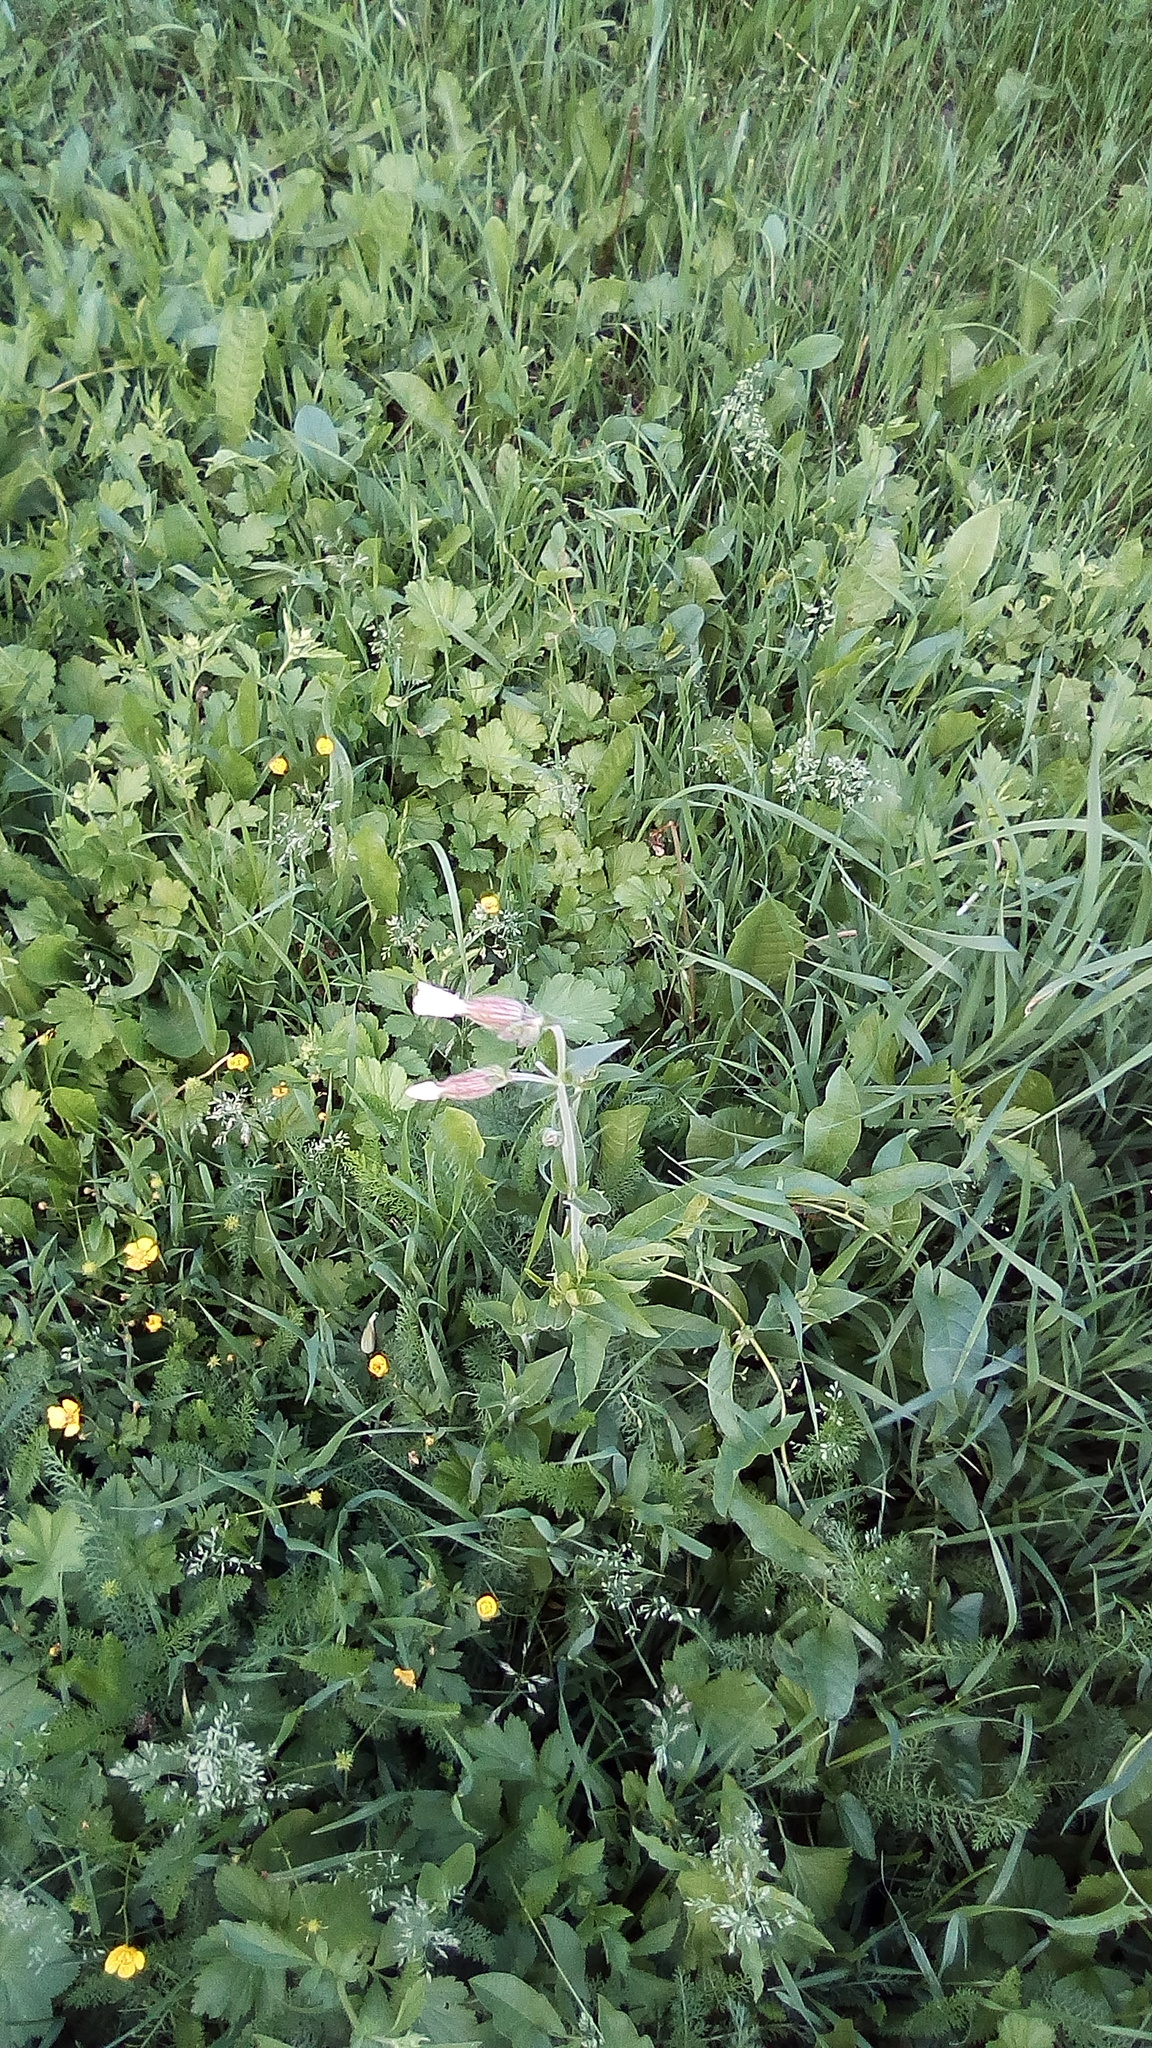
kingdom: Plantae
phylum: Tracheophyta
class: Magnoliopsida
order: Caryophyllales
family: Caryophyllaceae
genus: Silene
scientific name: Silene latifolia
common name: White campion
